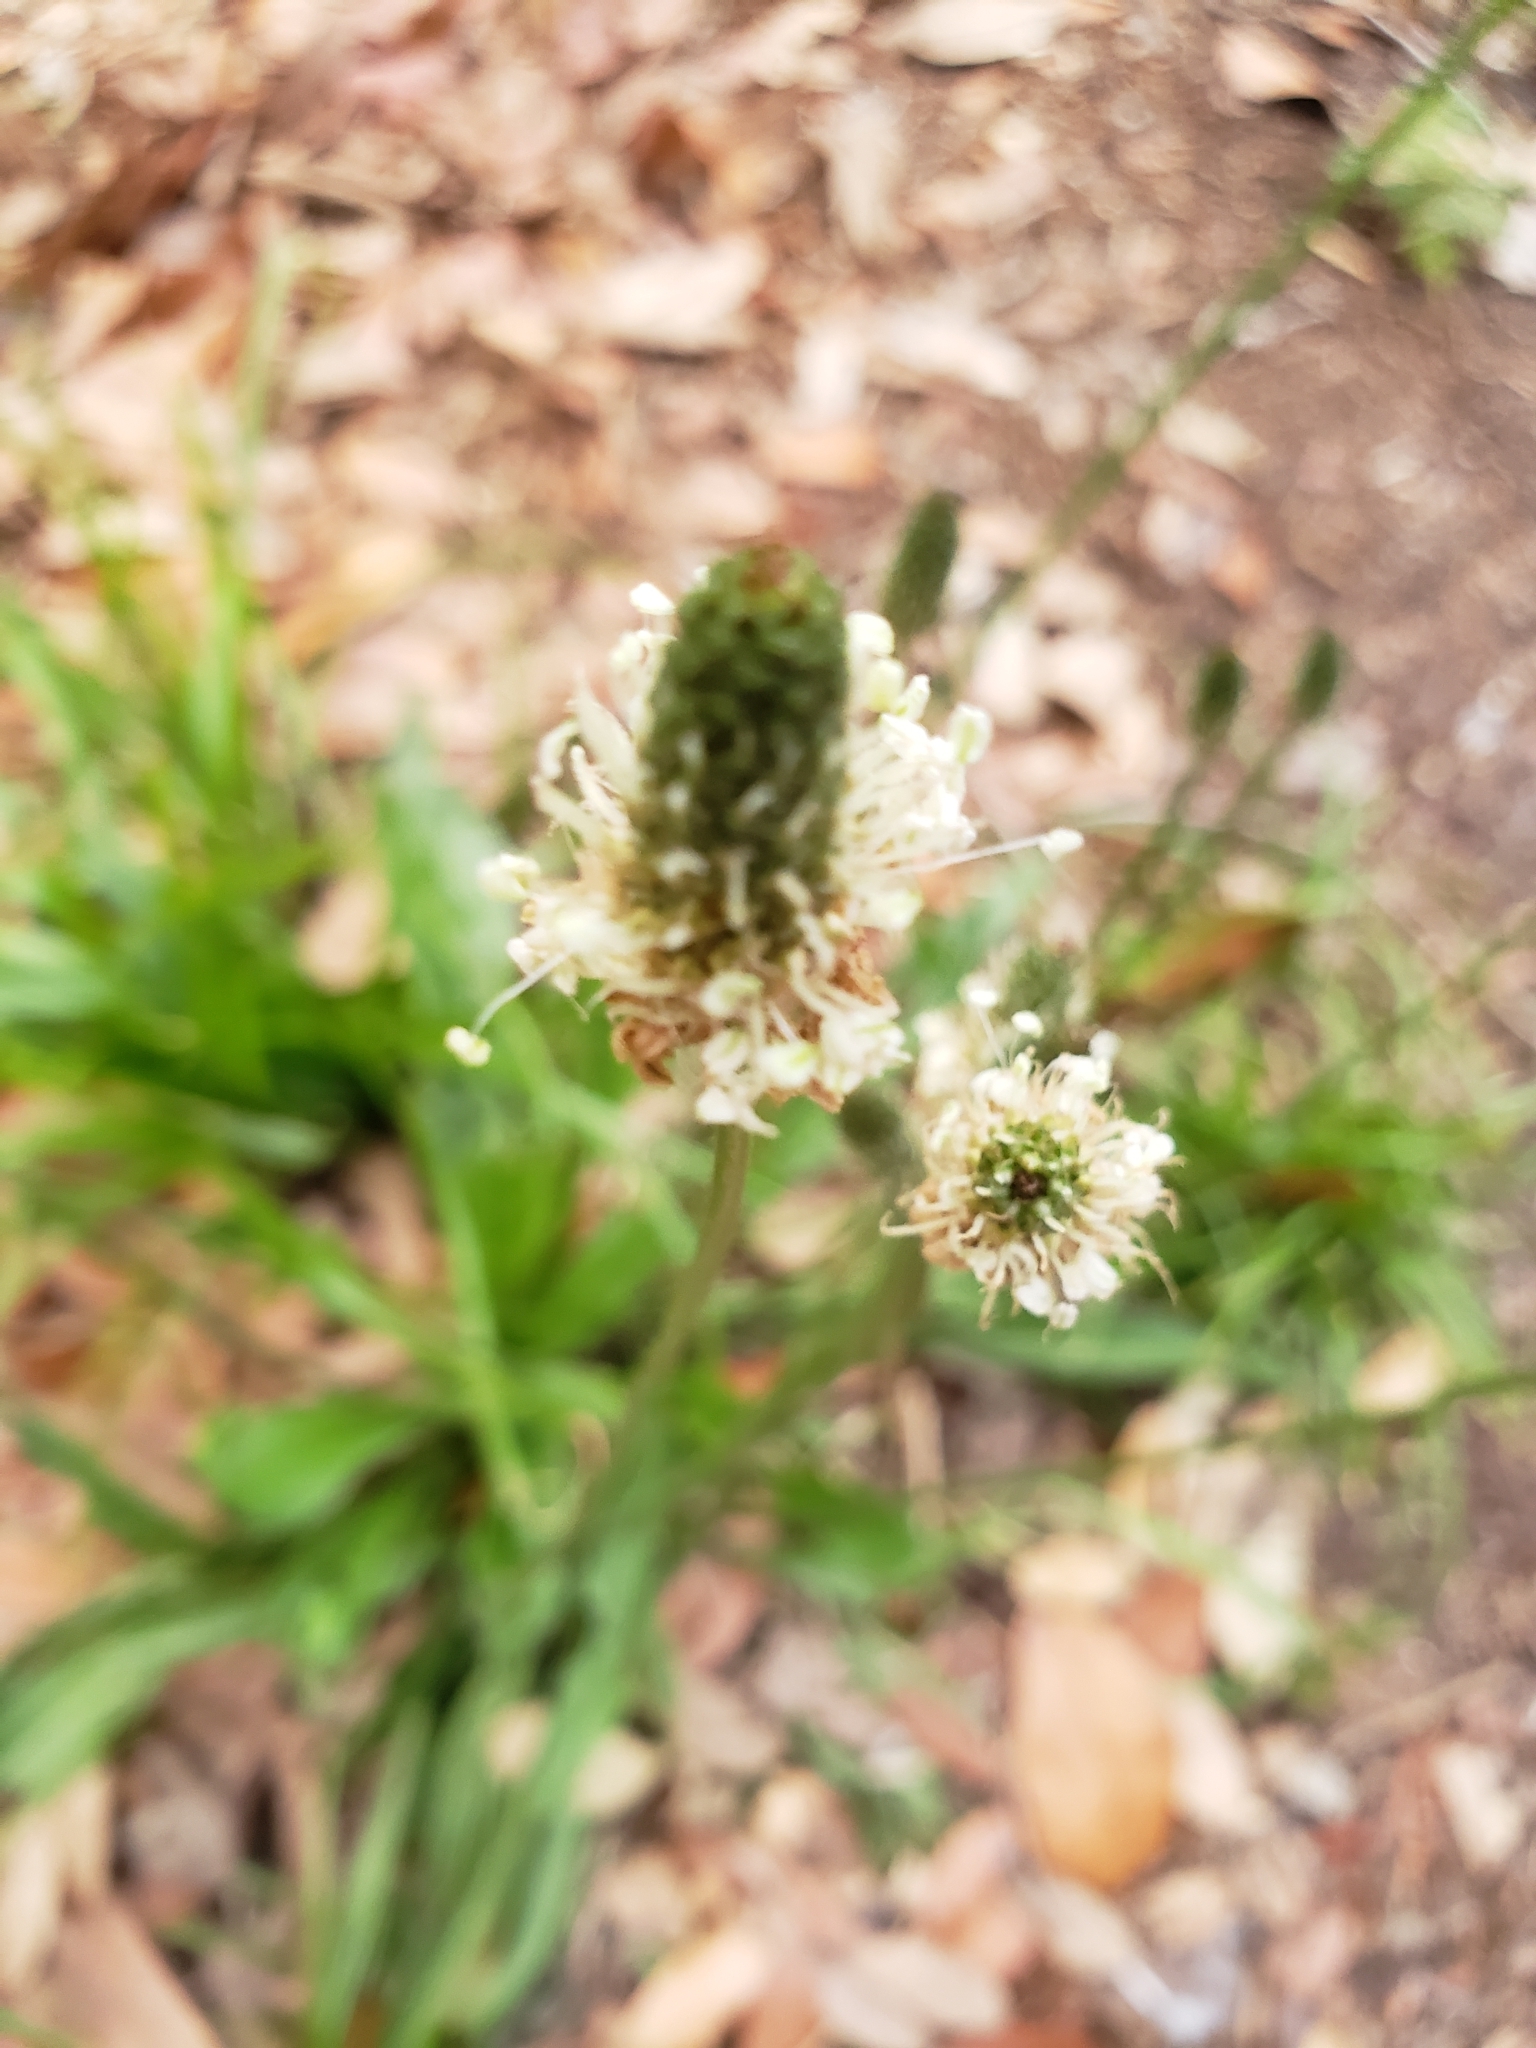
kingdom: Plantae
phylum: Tracheophyta
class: Magnoliopsida
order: Lamiales
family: Plantaginaceae
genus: Plantago
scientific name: Plantago lanceolata
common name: Ribwort plantain
